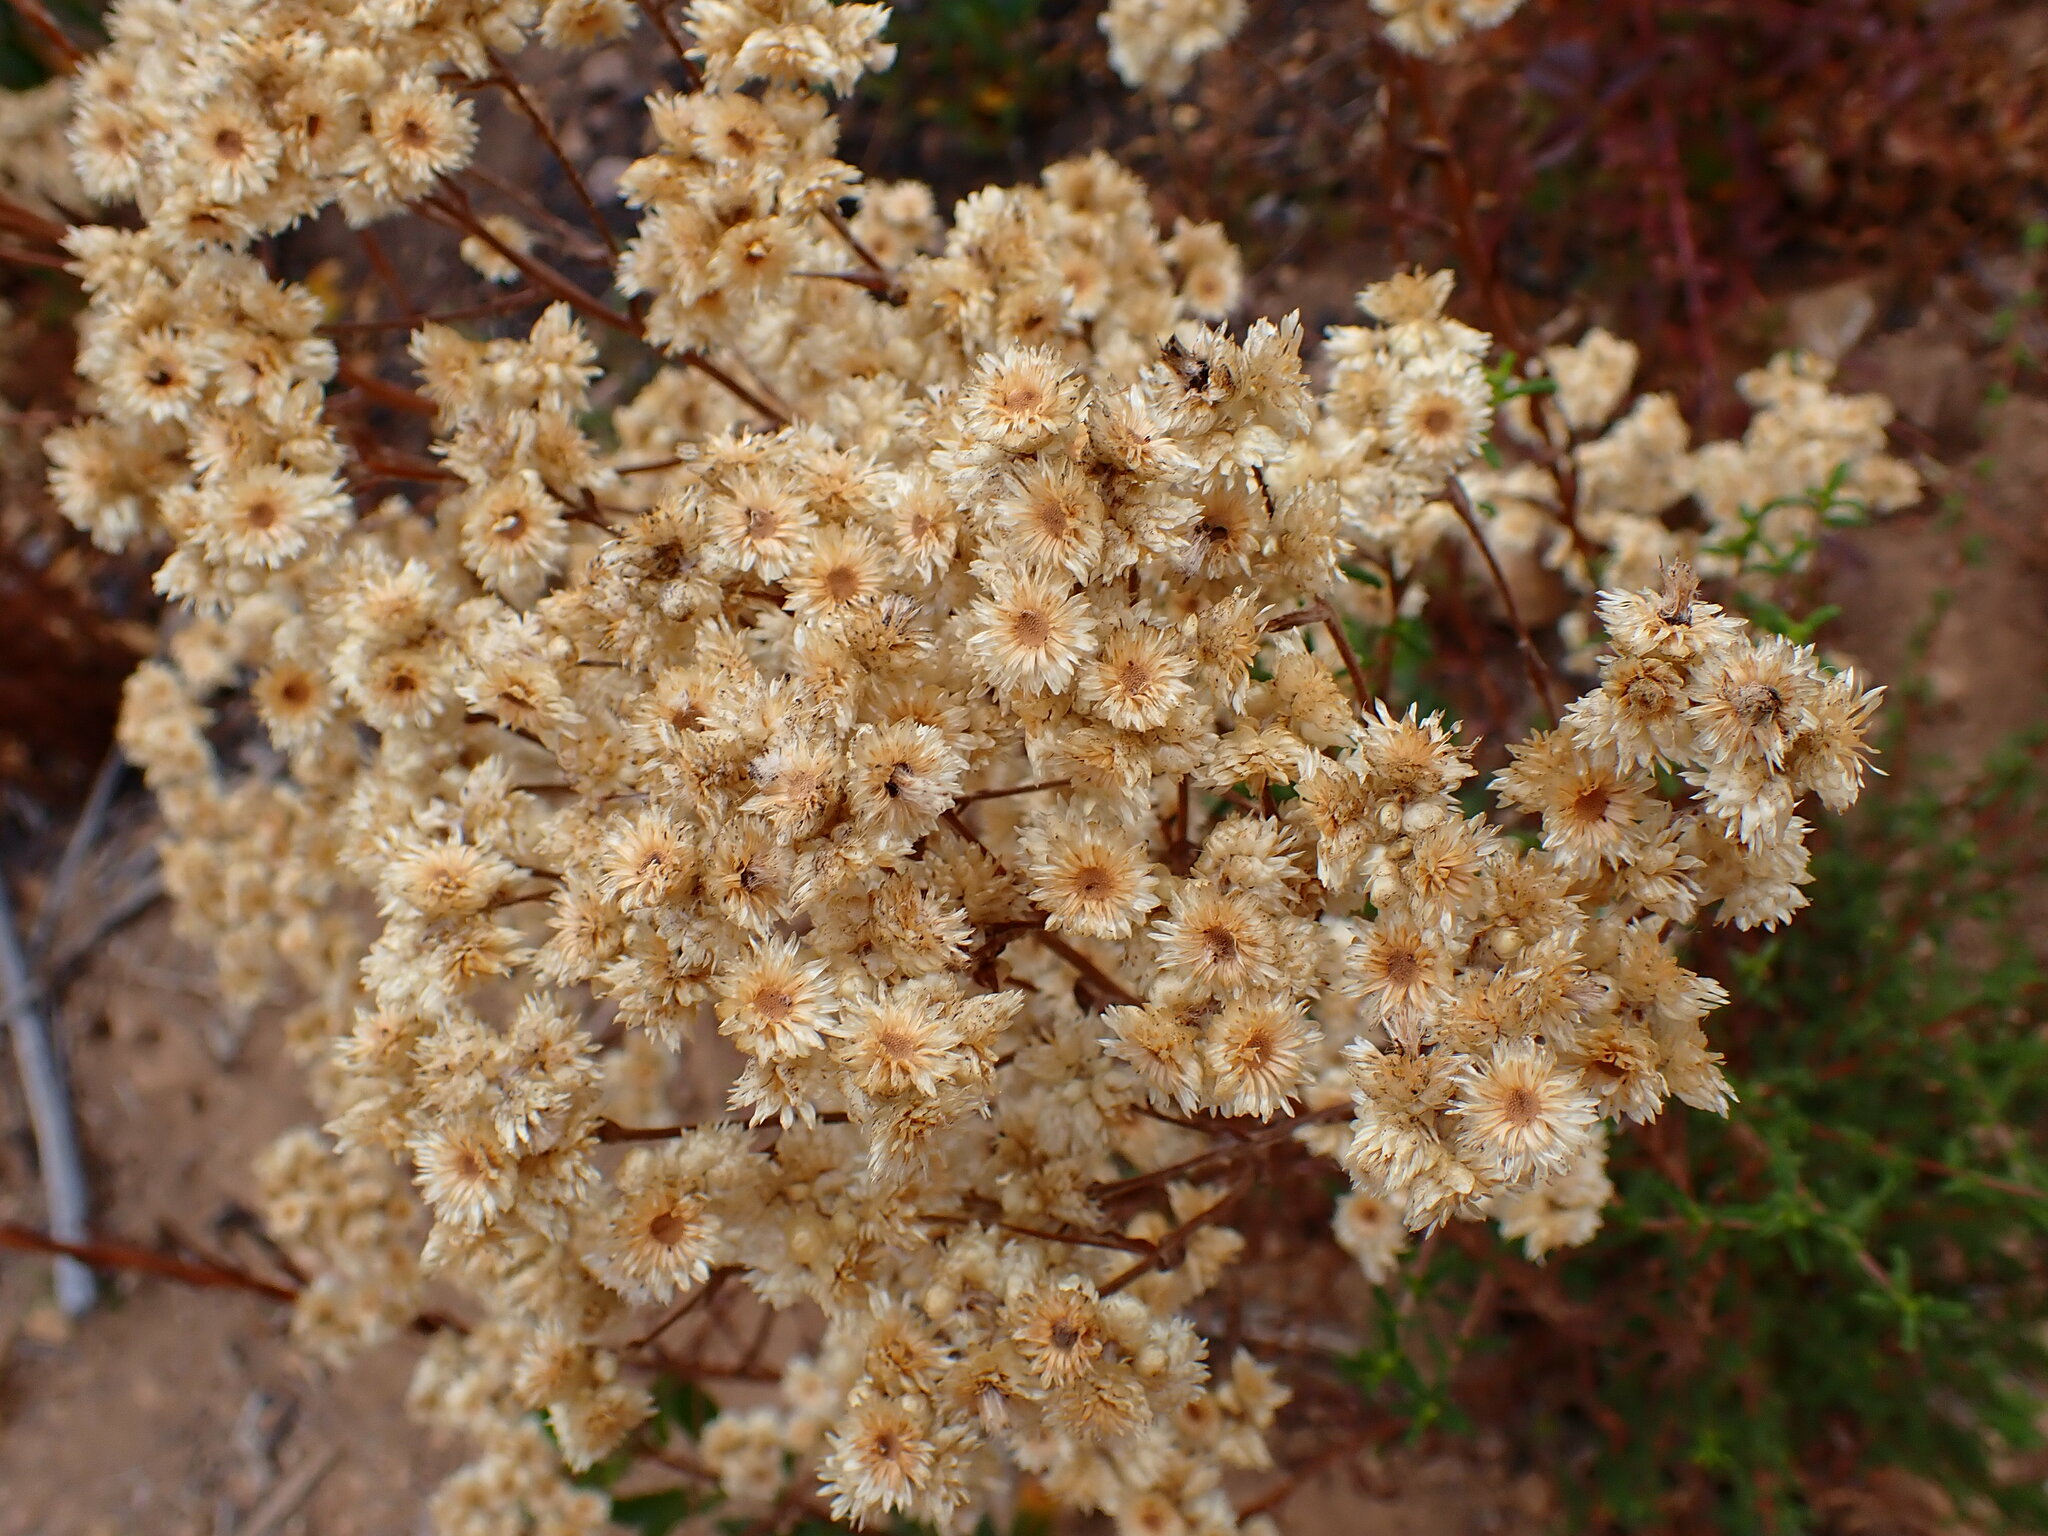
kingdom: Plantae
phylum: Tracheophyta
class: Magnoliopsida
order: Asterales
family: Asteraceae
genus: Pseudognaphalium
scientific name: Pseudognaphalium californicum
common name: California rabbit-tobacco
